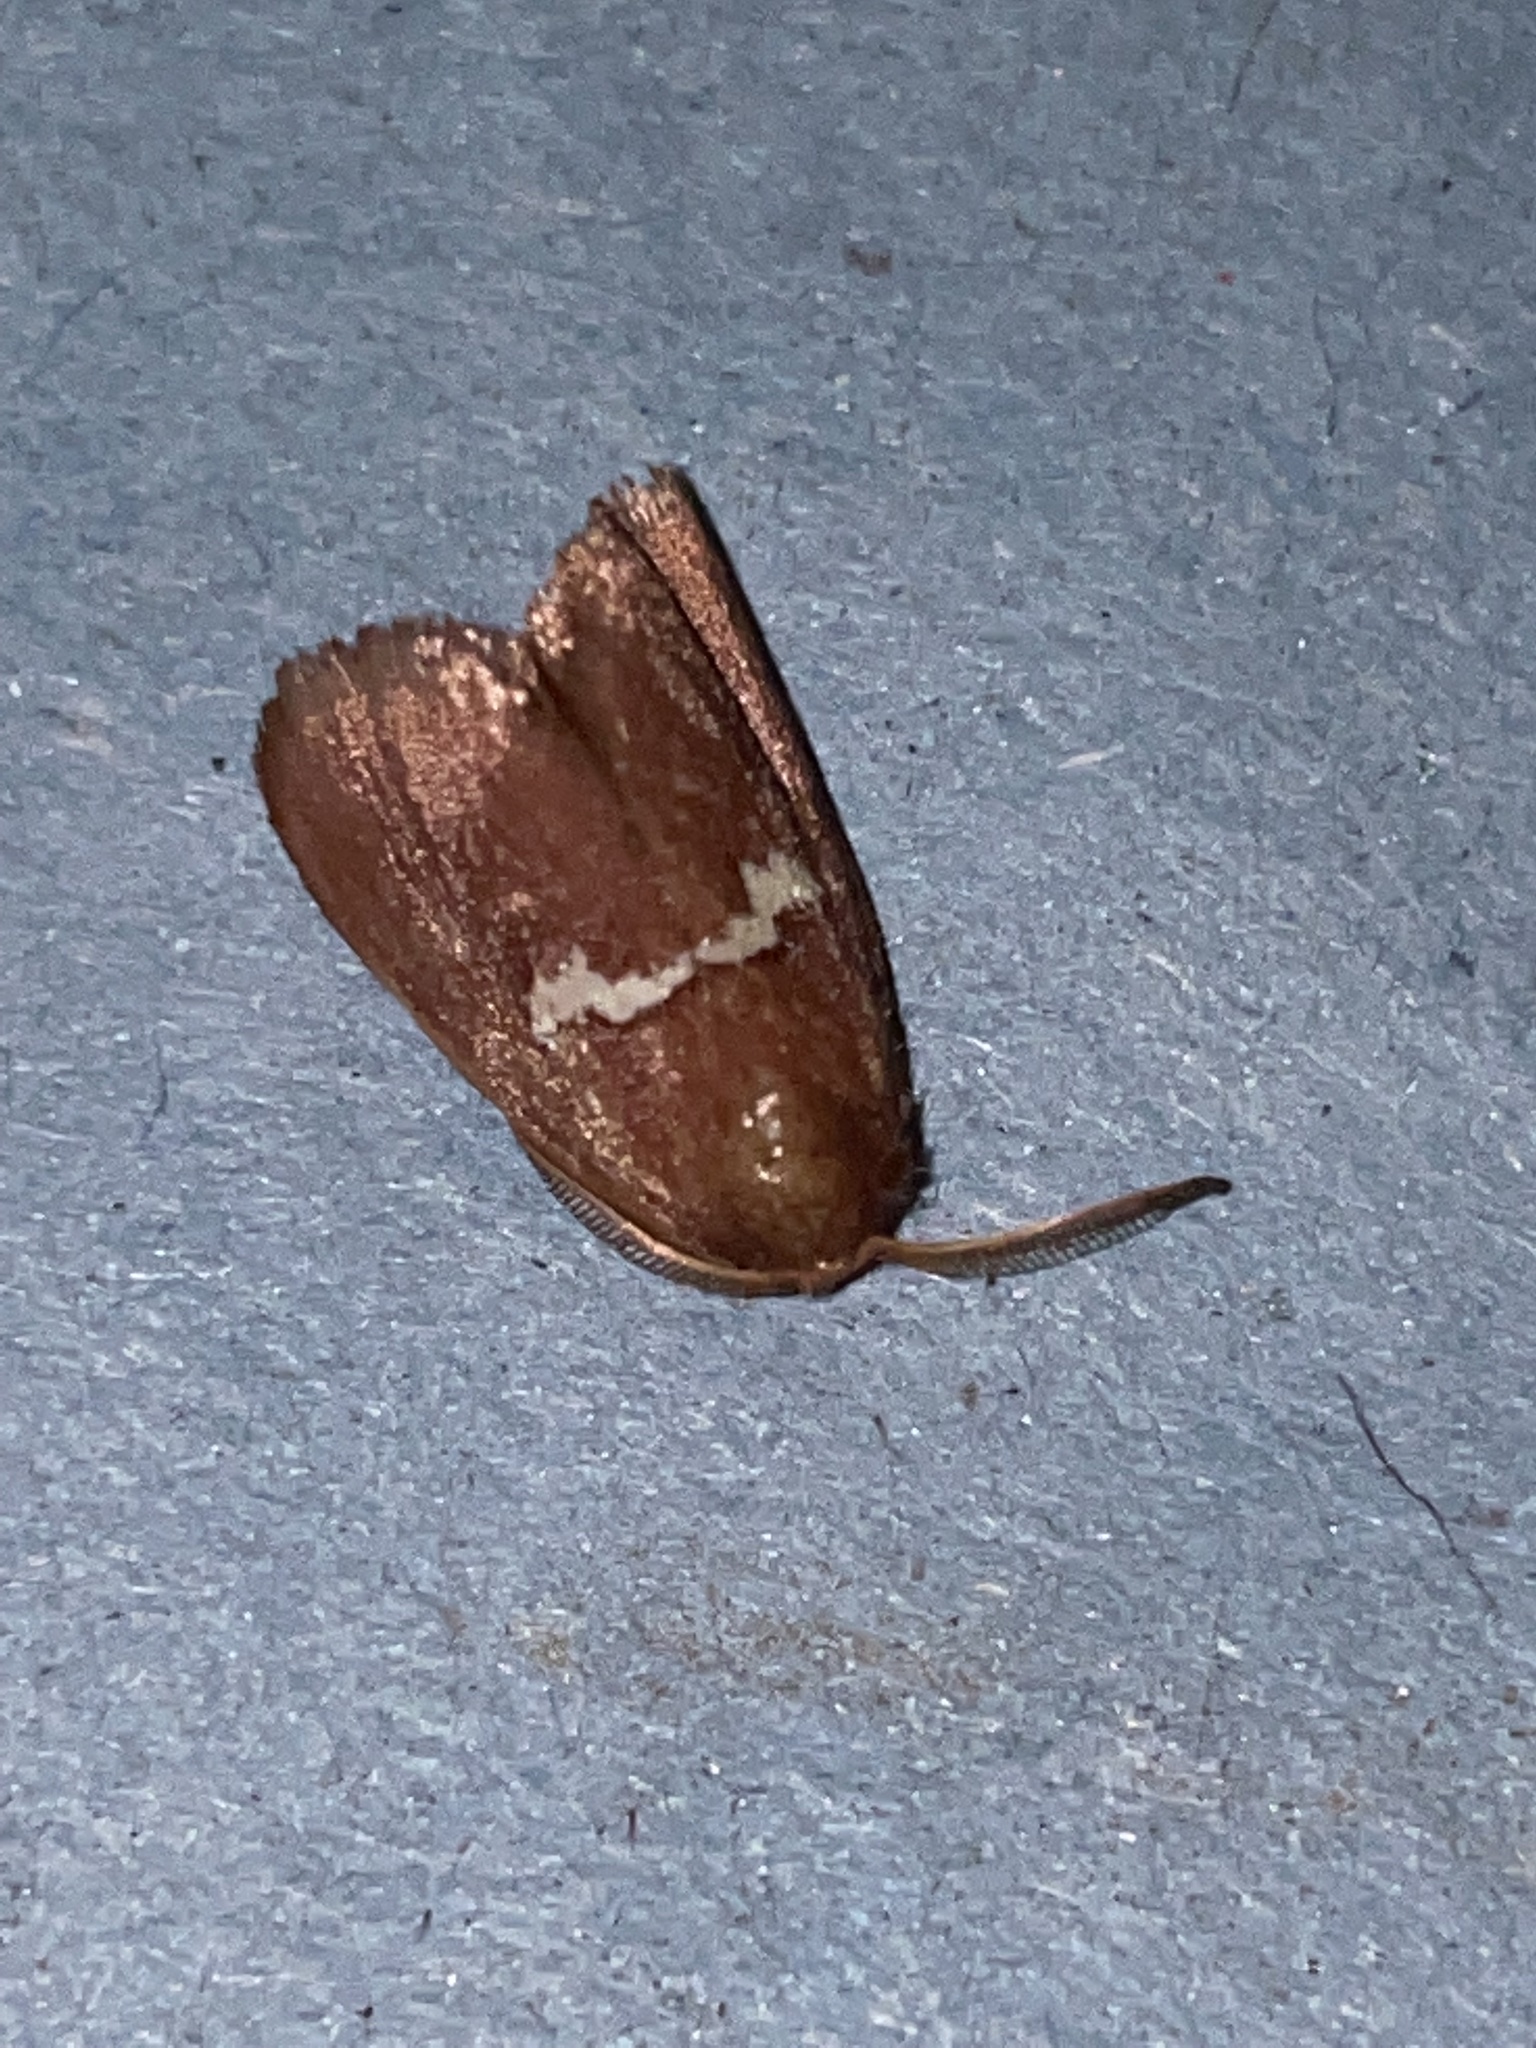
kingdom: Animalia
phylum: Arthropoda
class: Insecta
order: Lepidoptera
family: Limacodidae
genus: Monoleuca
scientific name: Monoleuca semifascia
